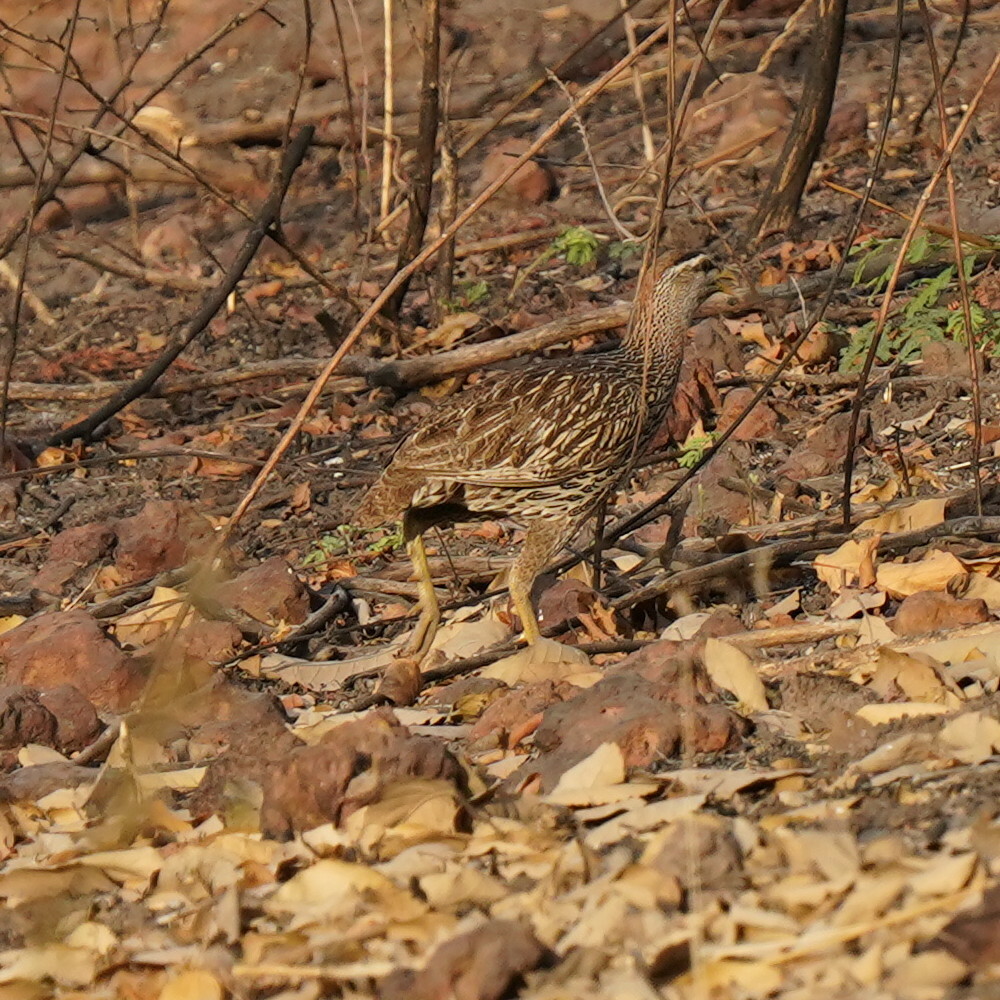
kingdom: Animalia
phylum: Chordata
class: Aves
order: Galliformes
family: Phasianidae
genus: Pternistis
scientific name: Pternistis bicalcaratus
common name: Double-spurred francolin
